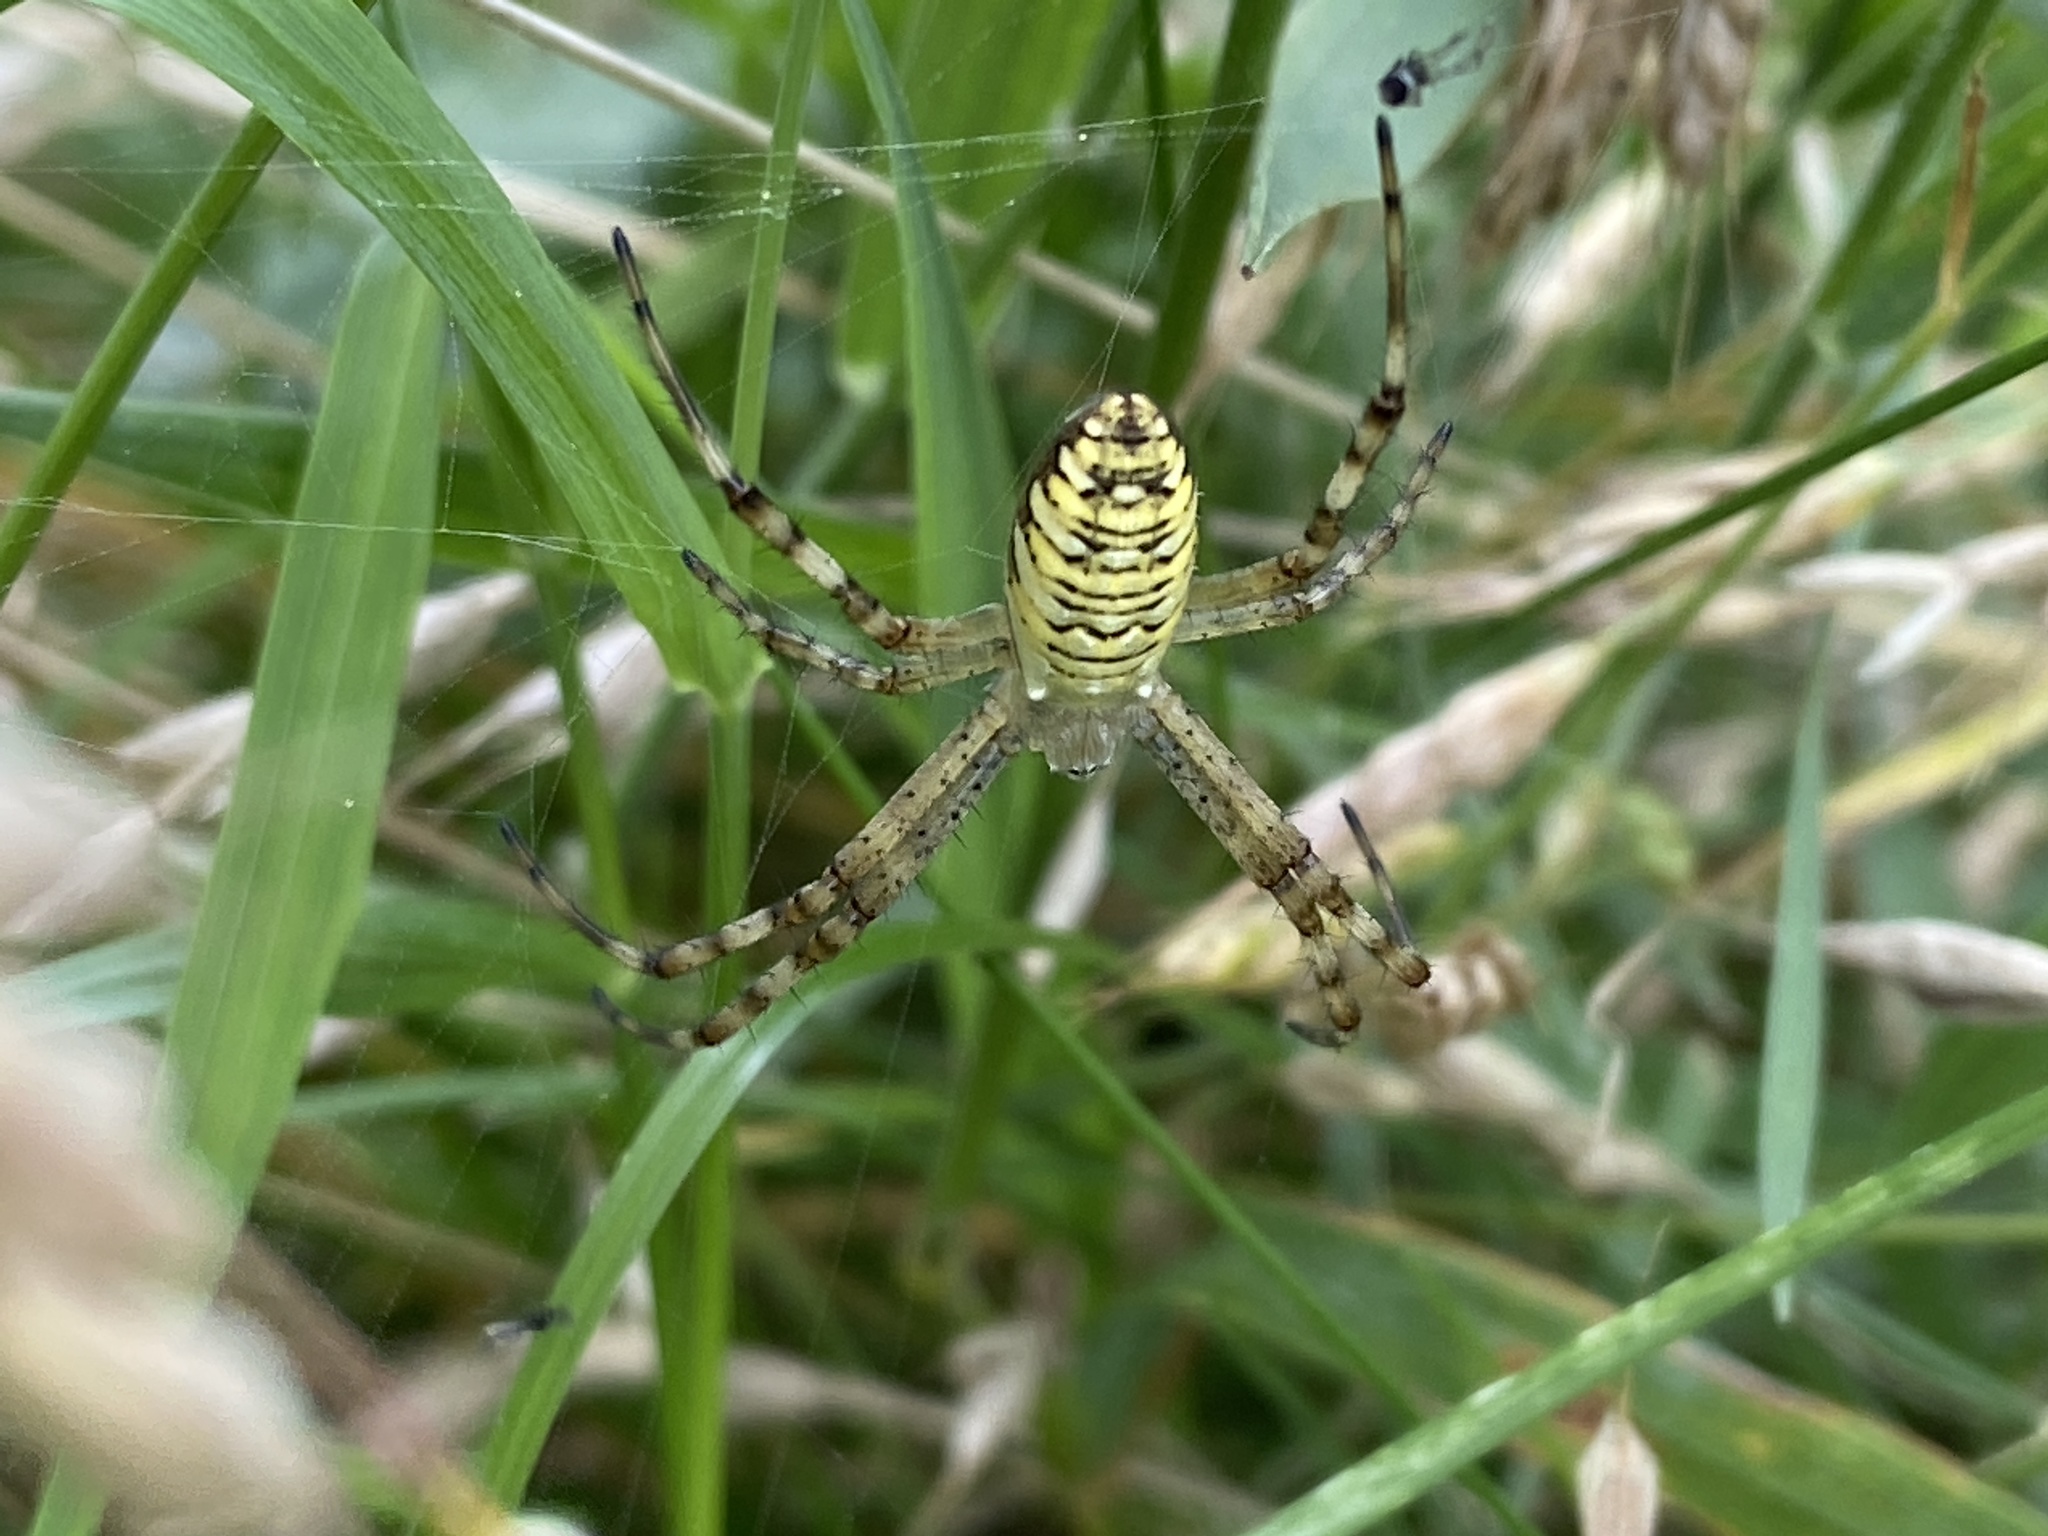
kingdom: Animalia
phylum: Arthropoda
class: Arachnida
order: Araneae
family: Araneidae
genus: Argiope
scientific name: Argiope bruennichi
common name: Wasp spider
